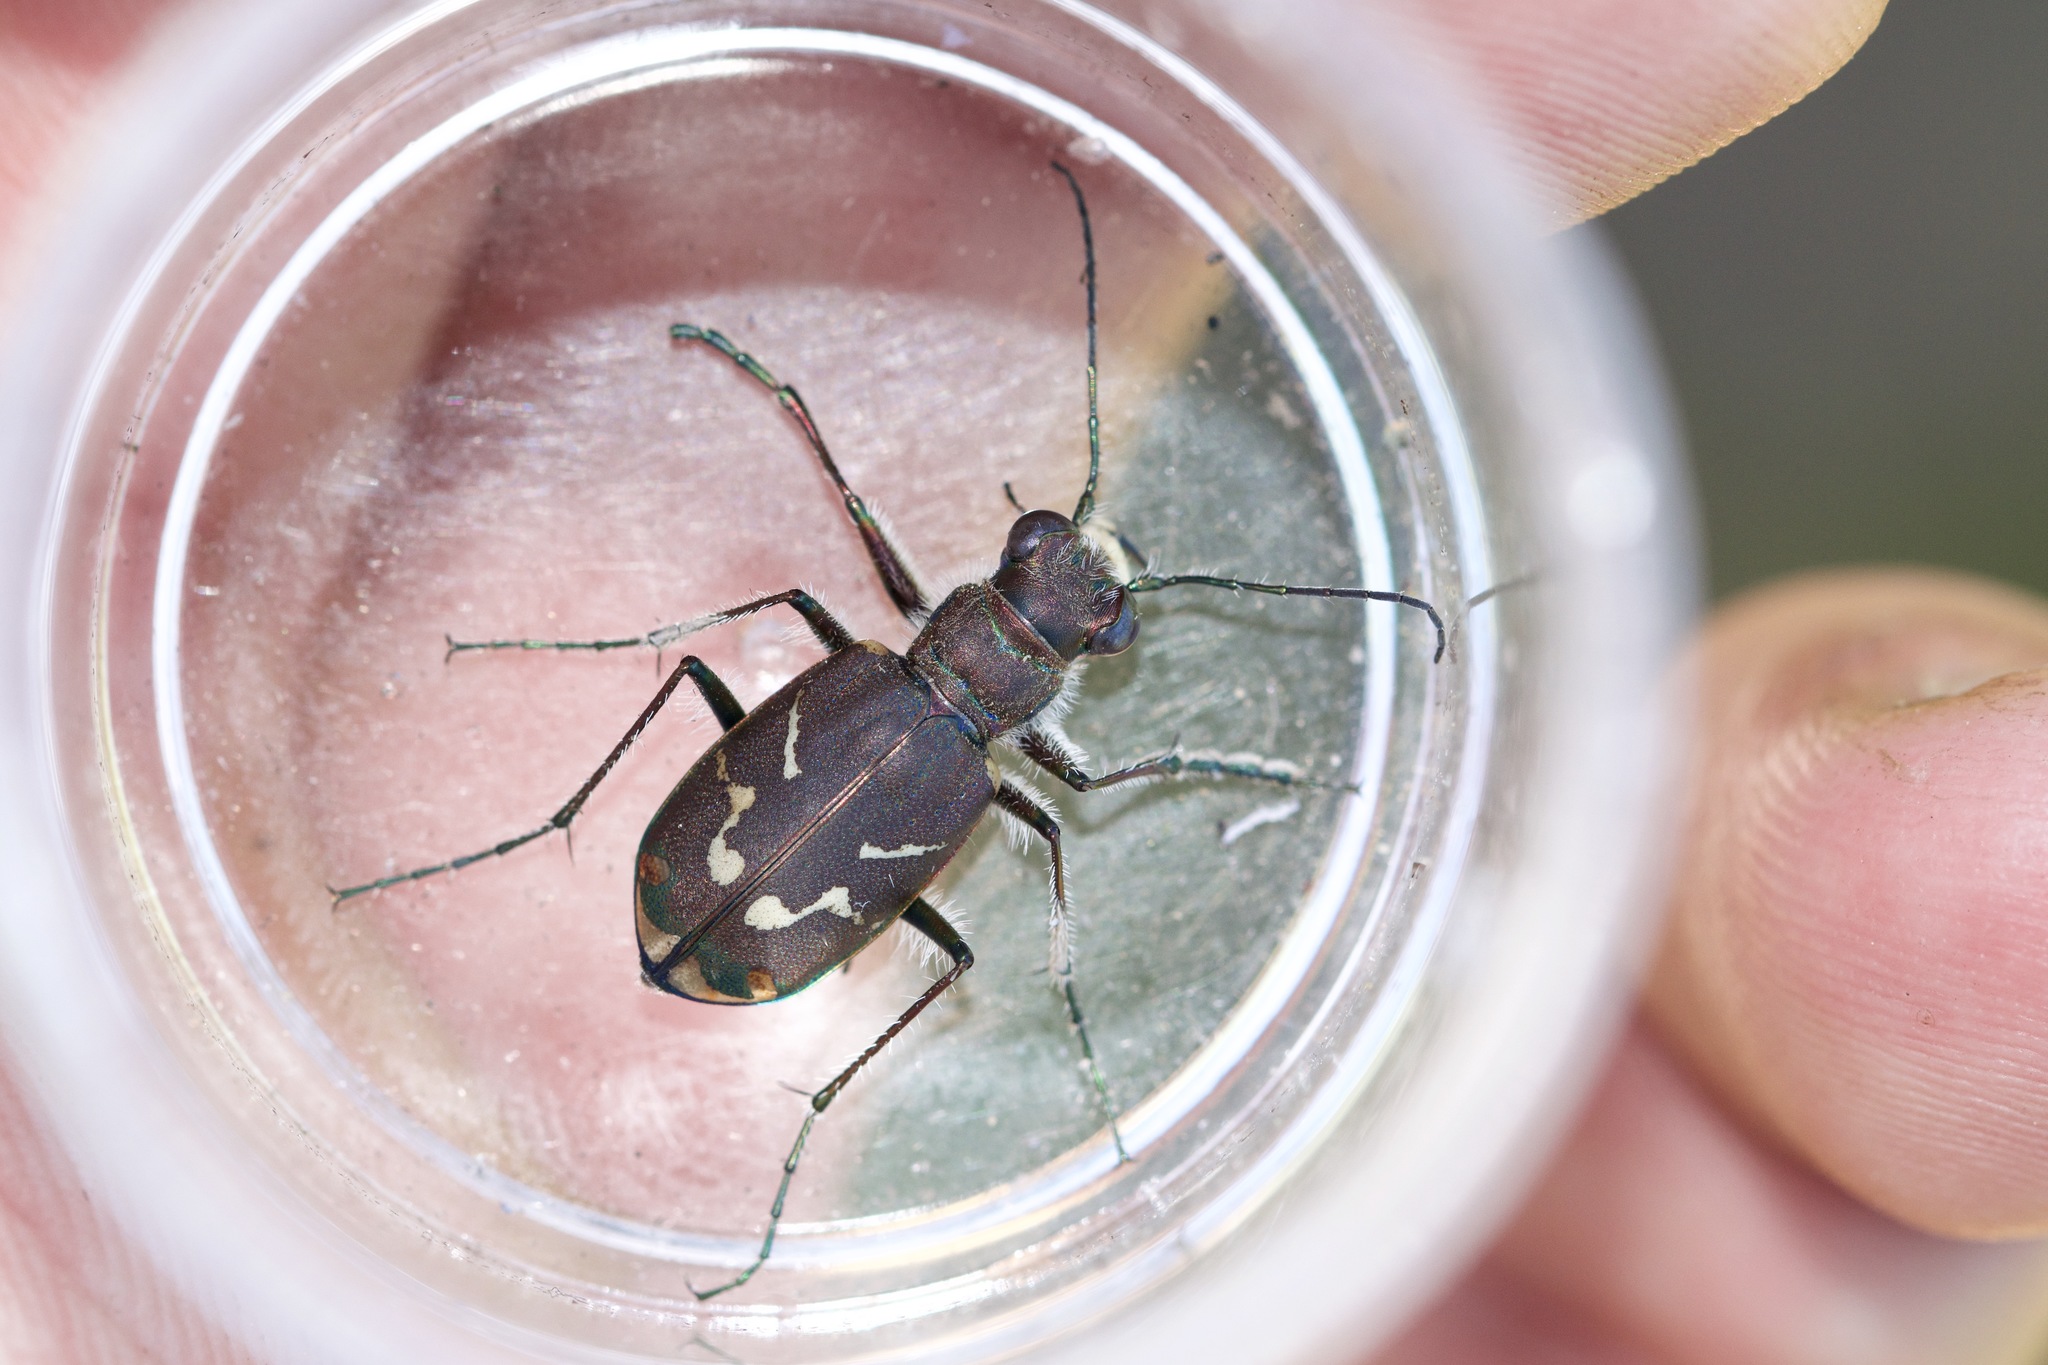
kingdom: Animalia
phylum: Arthropoda
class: Insecta
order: Coleoptera
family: Carabidae
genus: Cicindela
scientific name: Cicindela tranquebarica
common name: Oblique-lined tiger beetle
